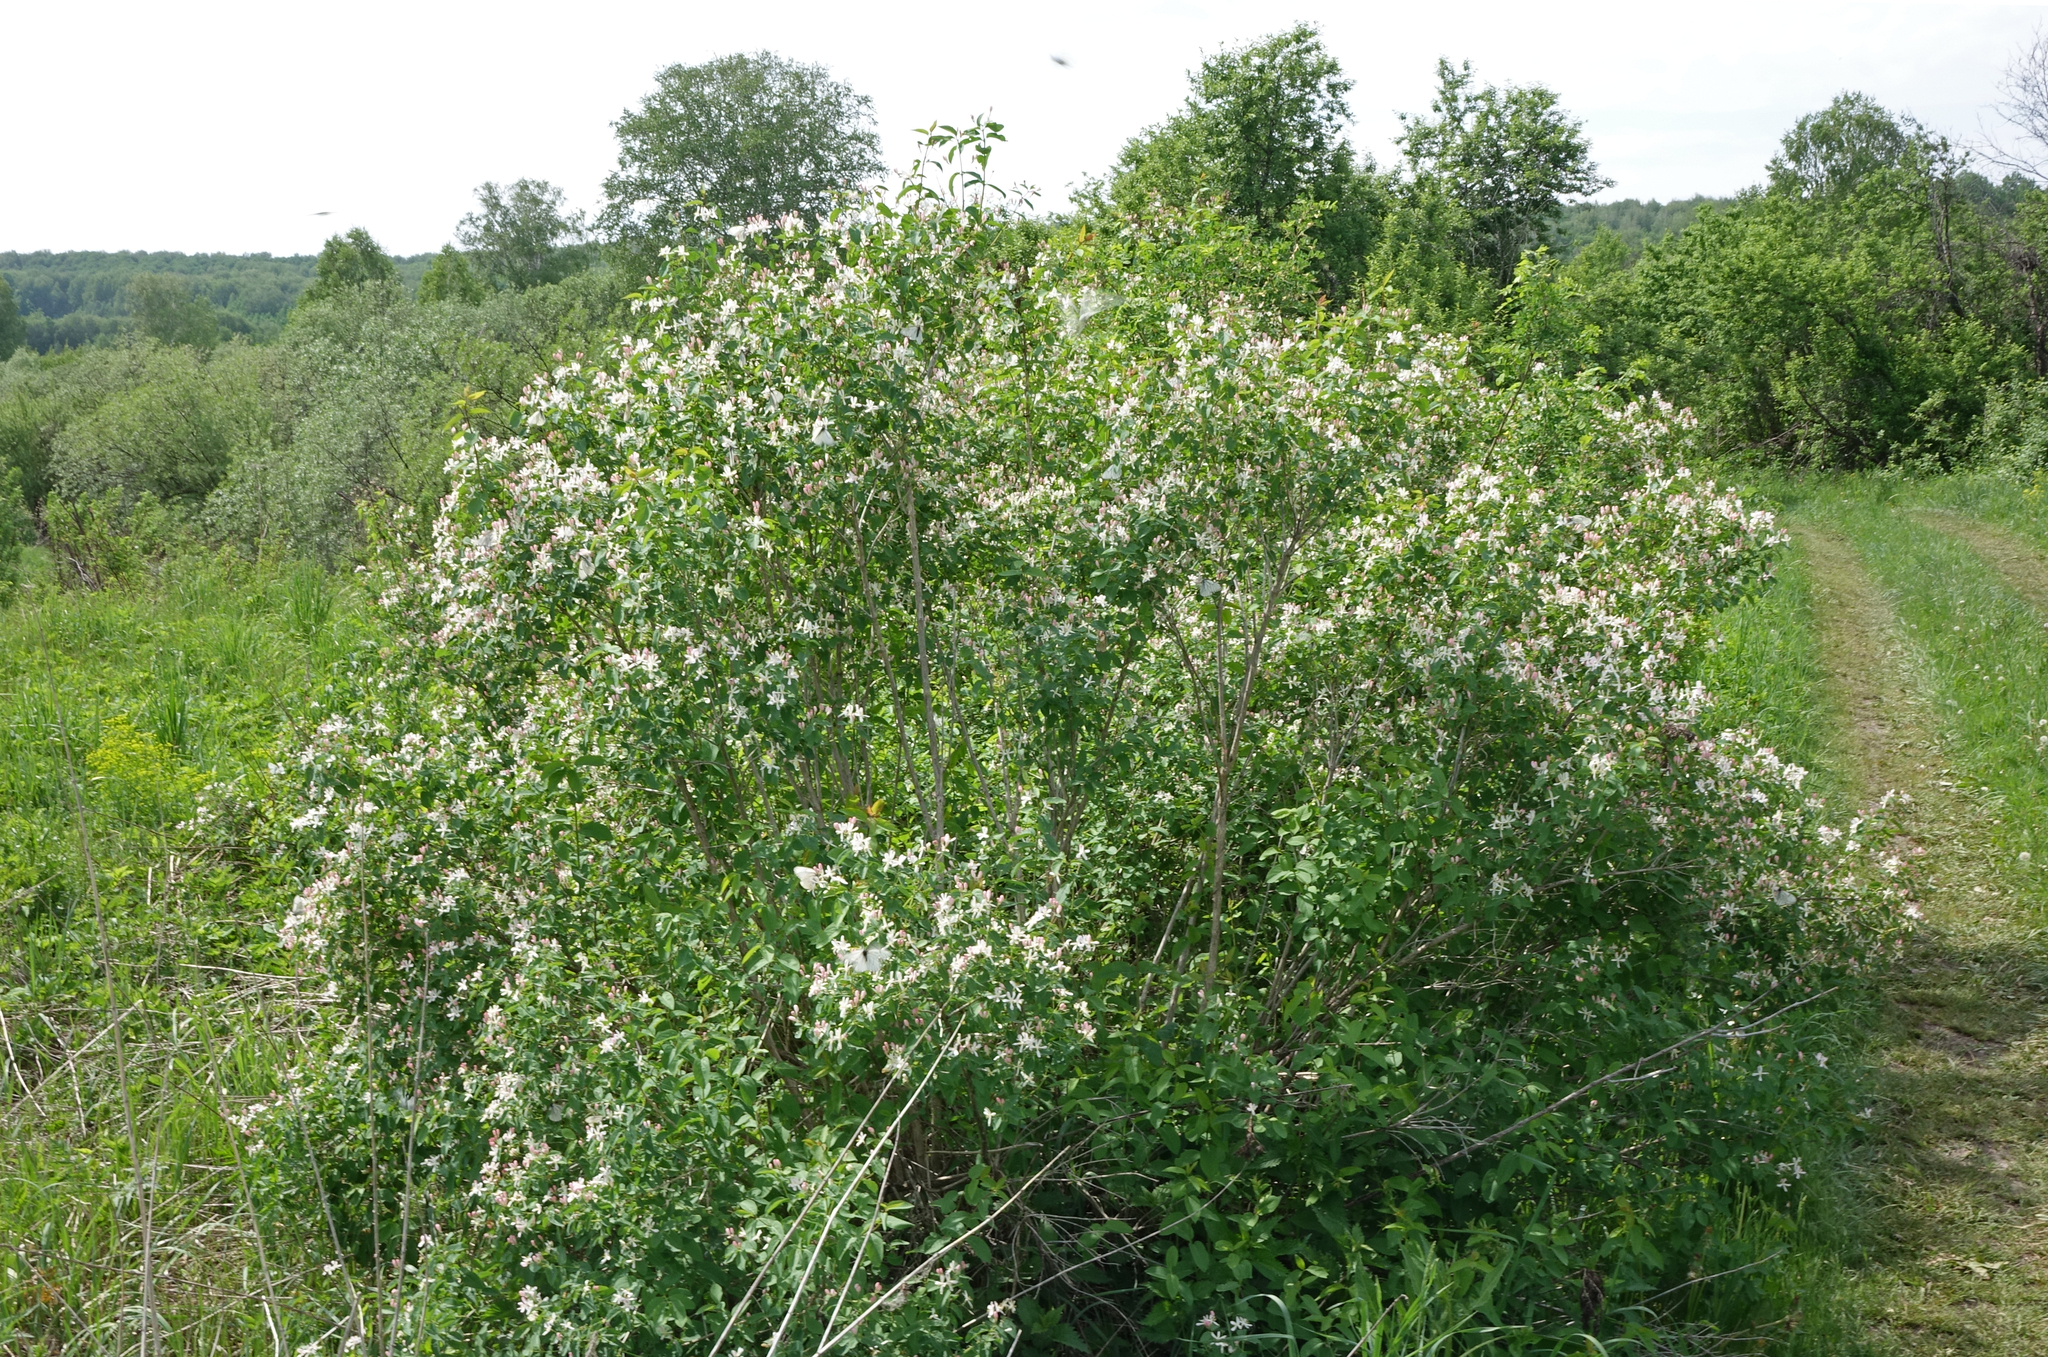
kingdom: Plantae
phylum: Tracheophyta
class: Magnoliopsida
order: Dipsacales
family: Caprifoliaceae
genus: Lonicera
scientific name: Lonicera tatarica
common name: Tatarian honeysuckle
